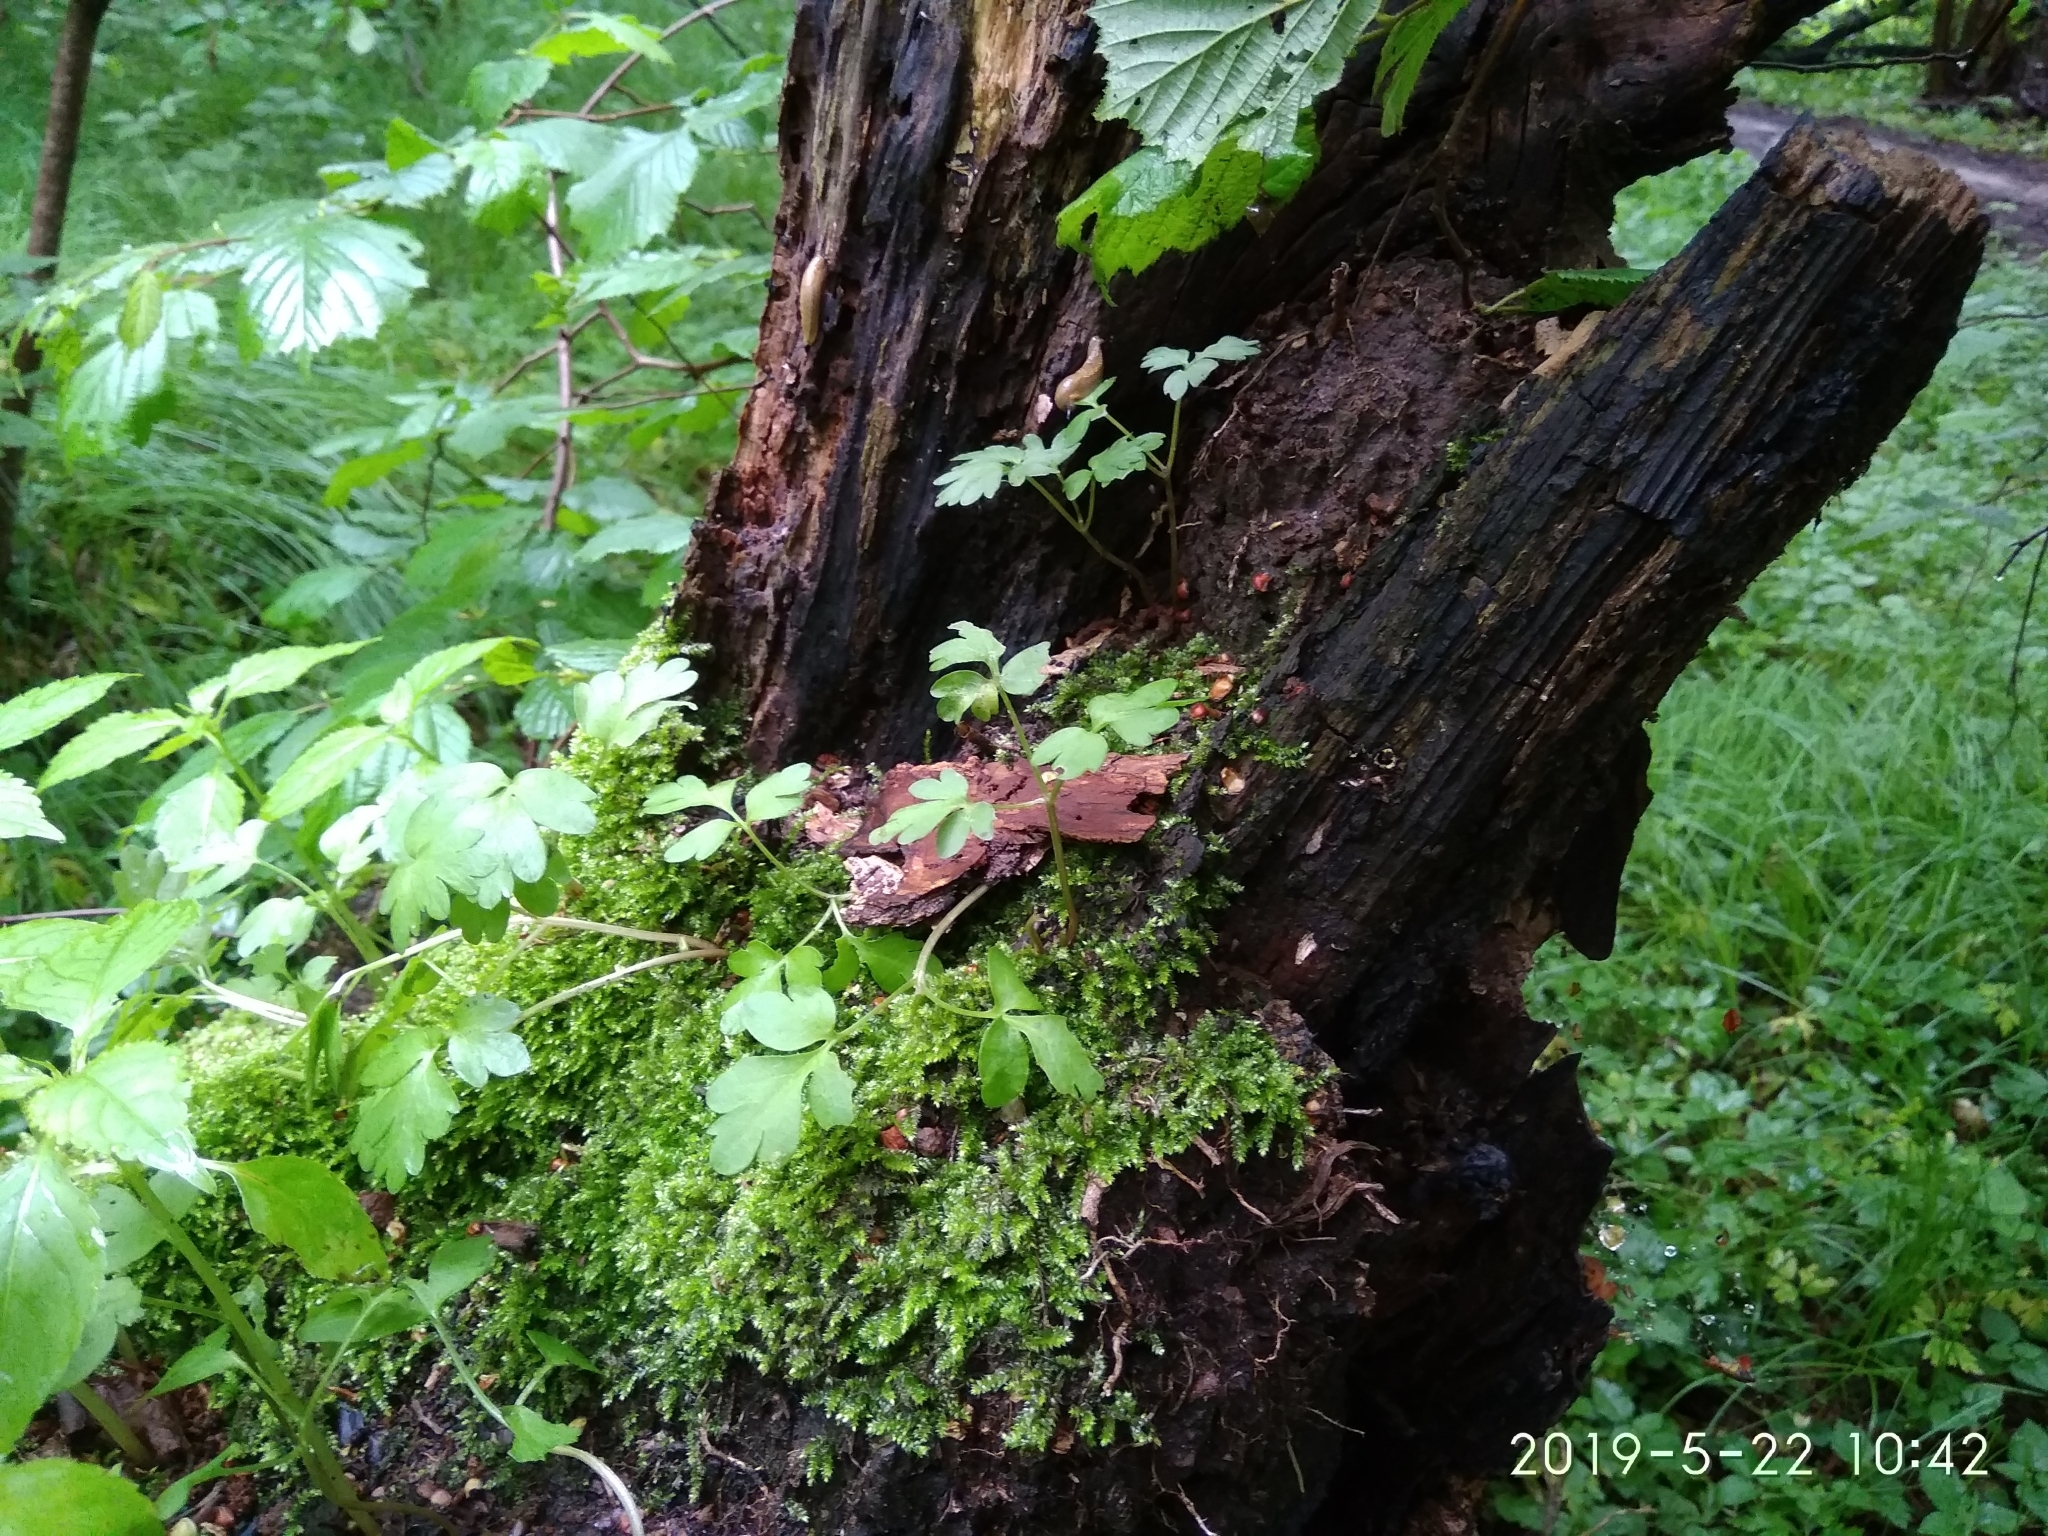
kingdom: Plantae
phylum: Tracheophyta
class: Magnoliopsida
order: Dipsacales
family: Viburnaceae
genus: Adoxa
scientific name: Adoxa moschatellina
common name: Moschatel
